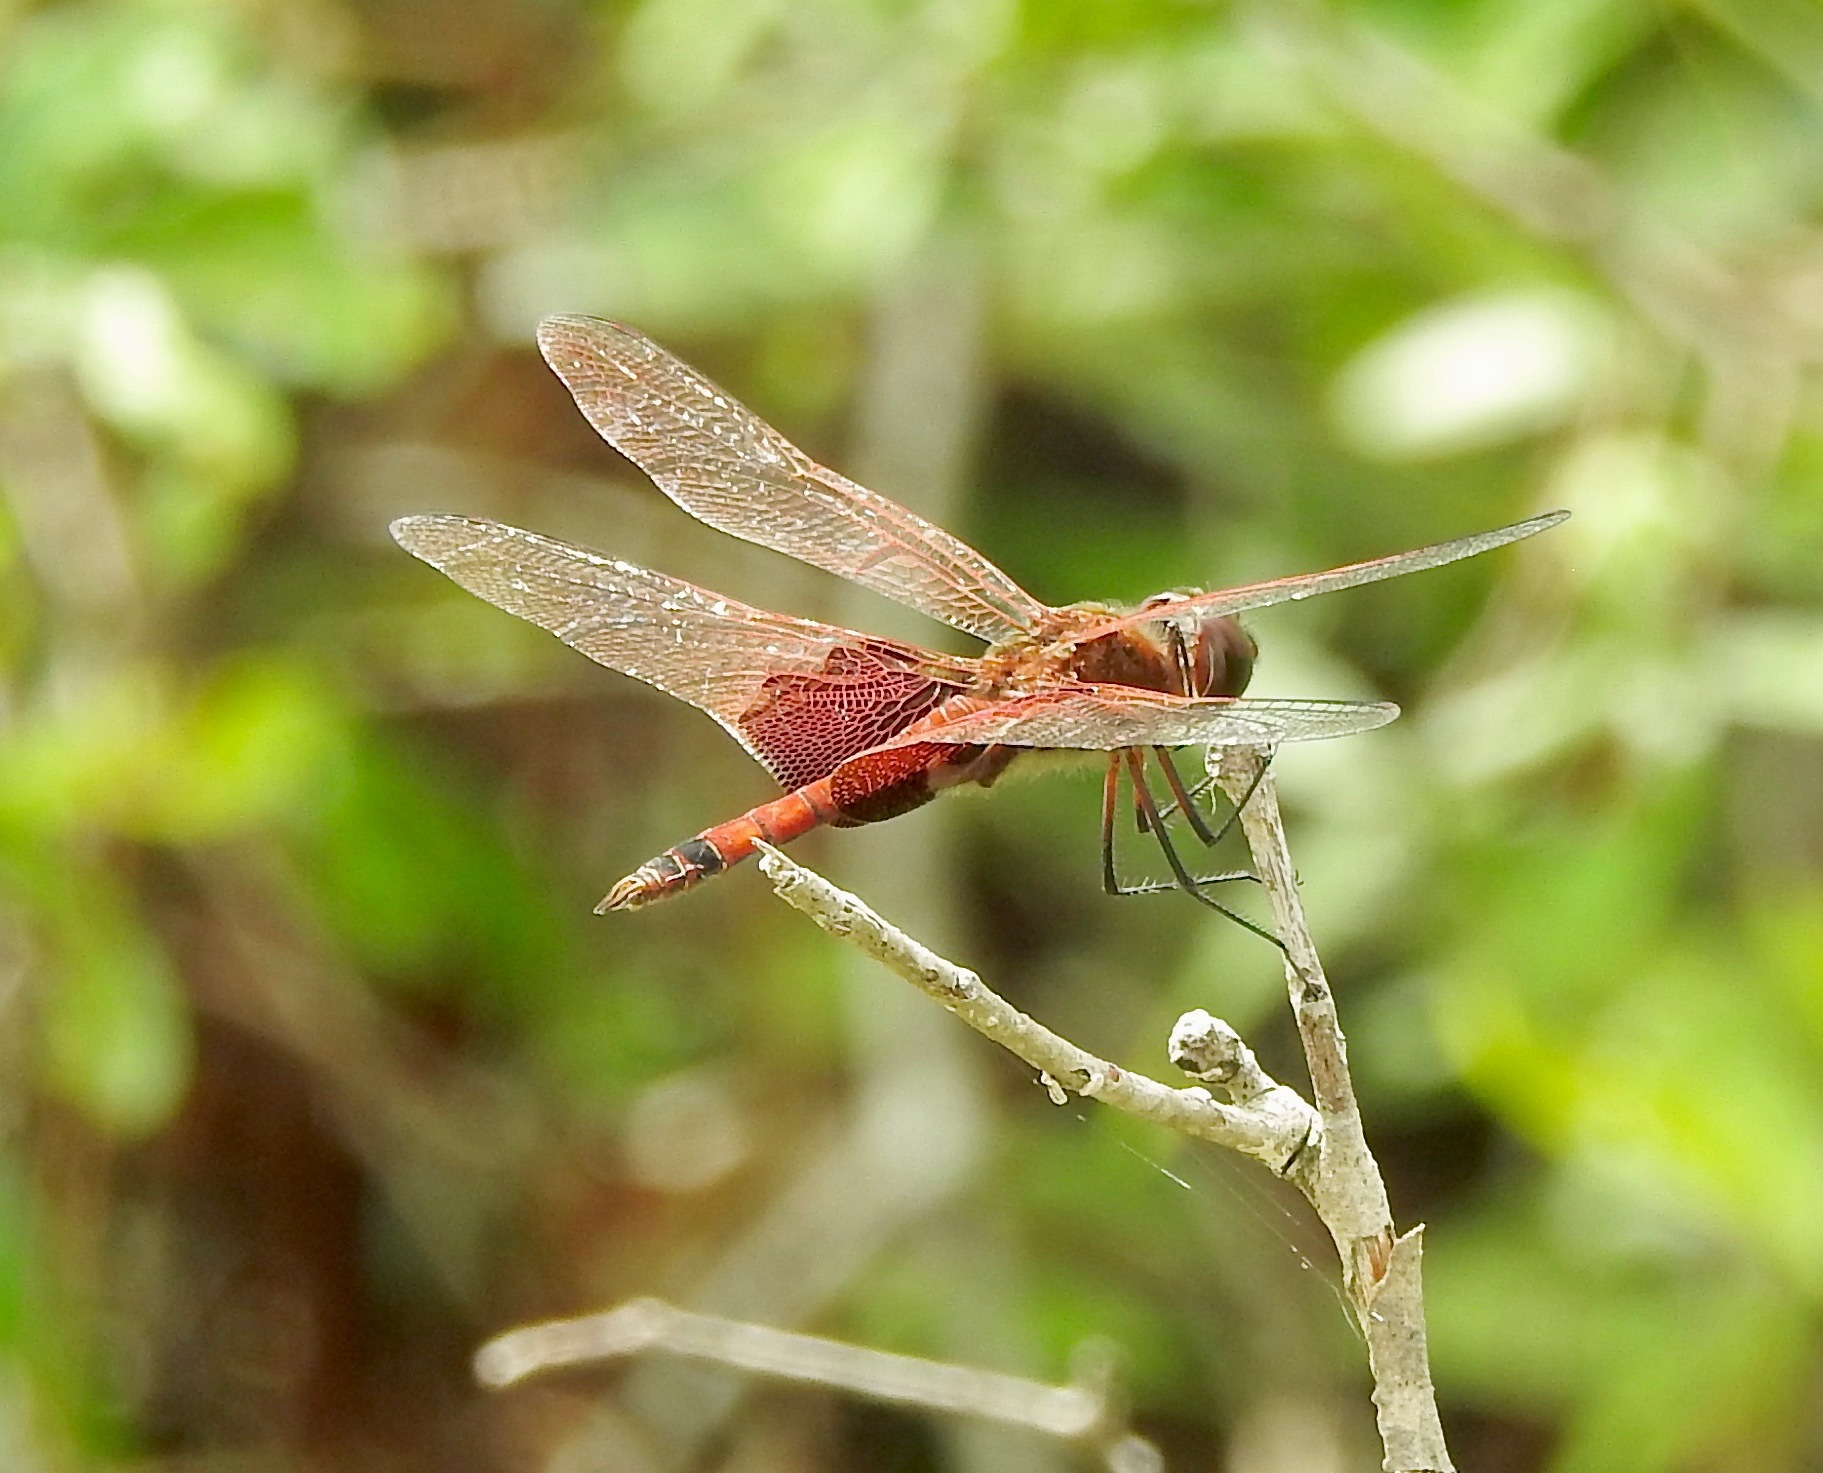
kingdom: Animalia
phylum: Arthropoda
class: Insecta
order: Odonata
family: Libellulidae
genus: Tramea
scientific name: Tramea carolina
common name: Carolina saddlebags
